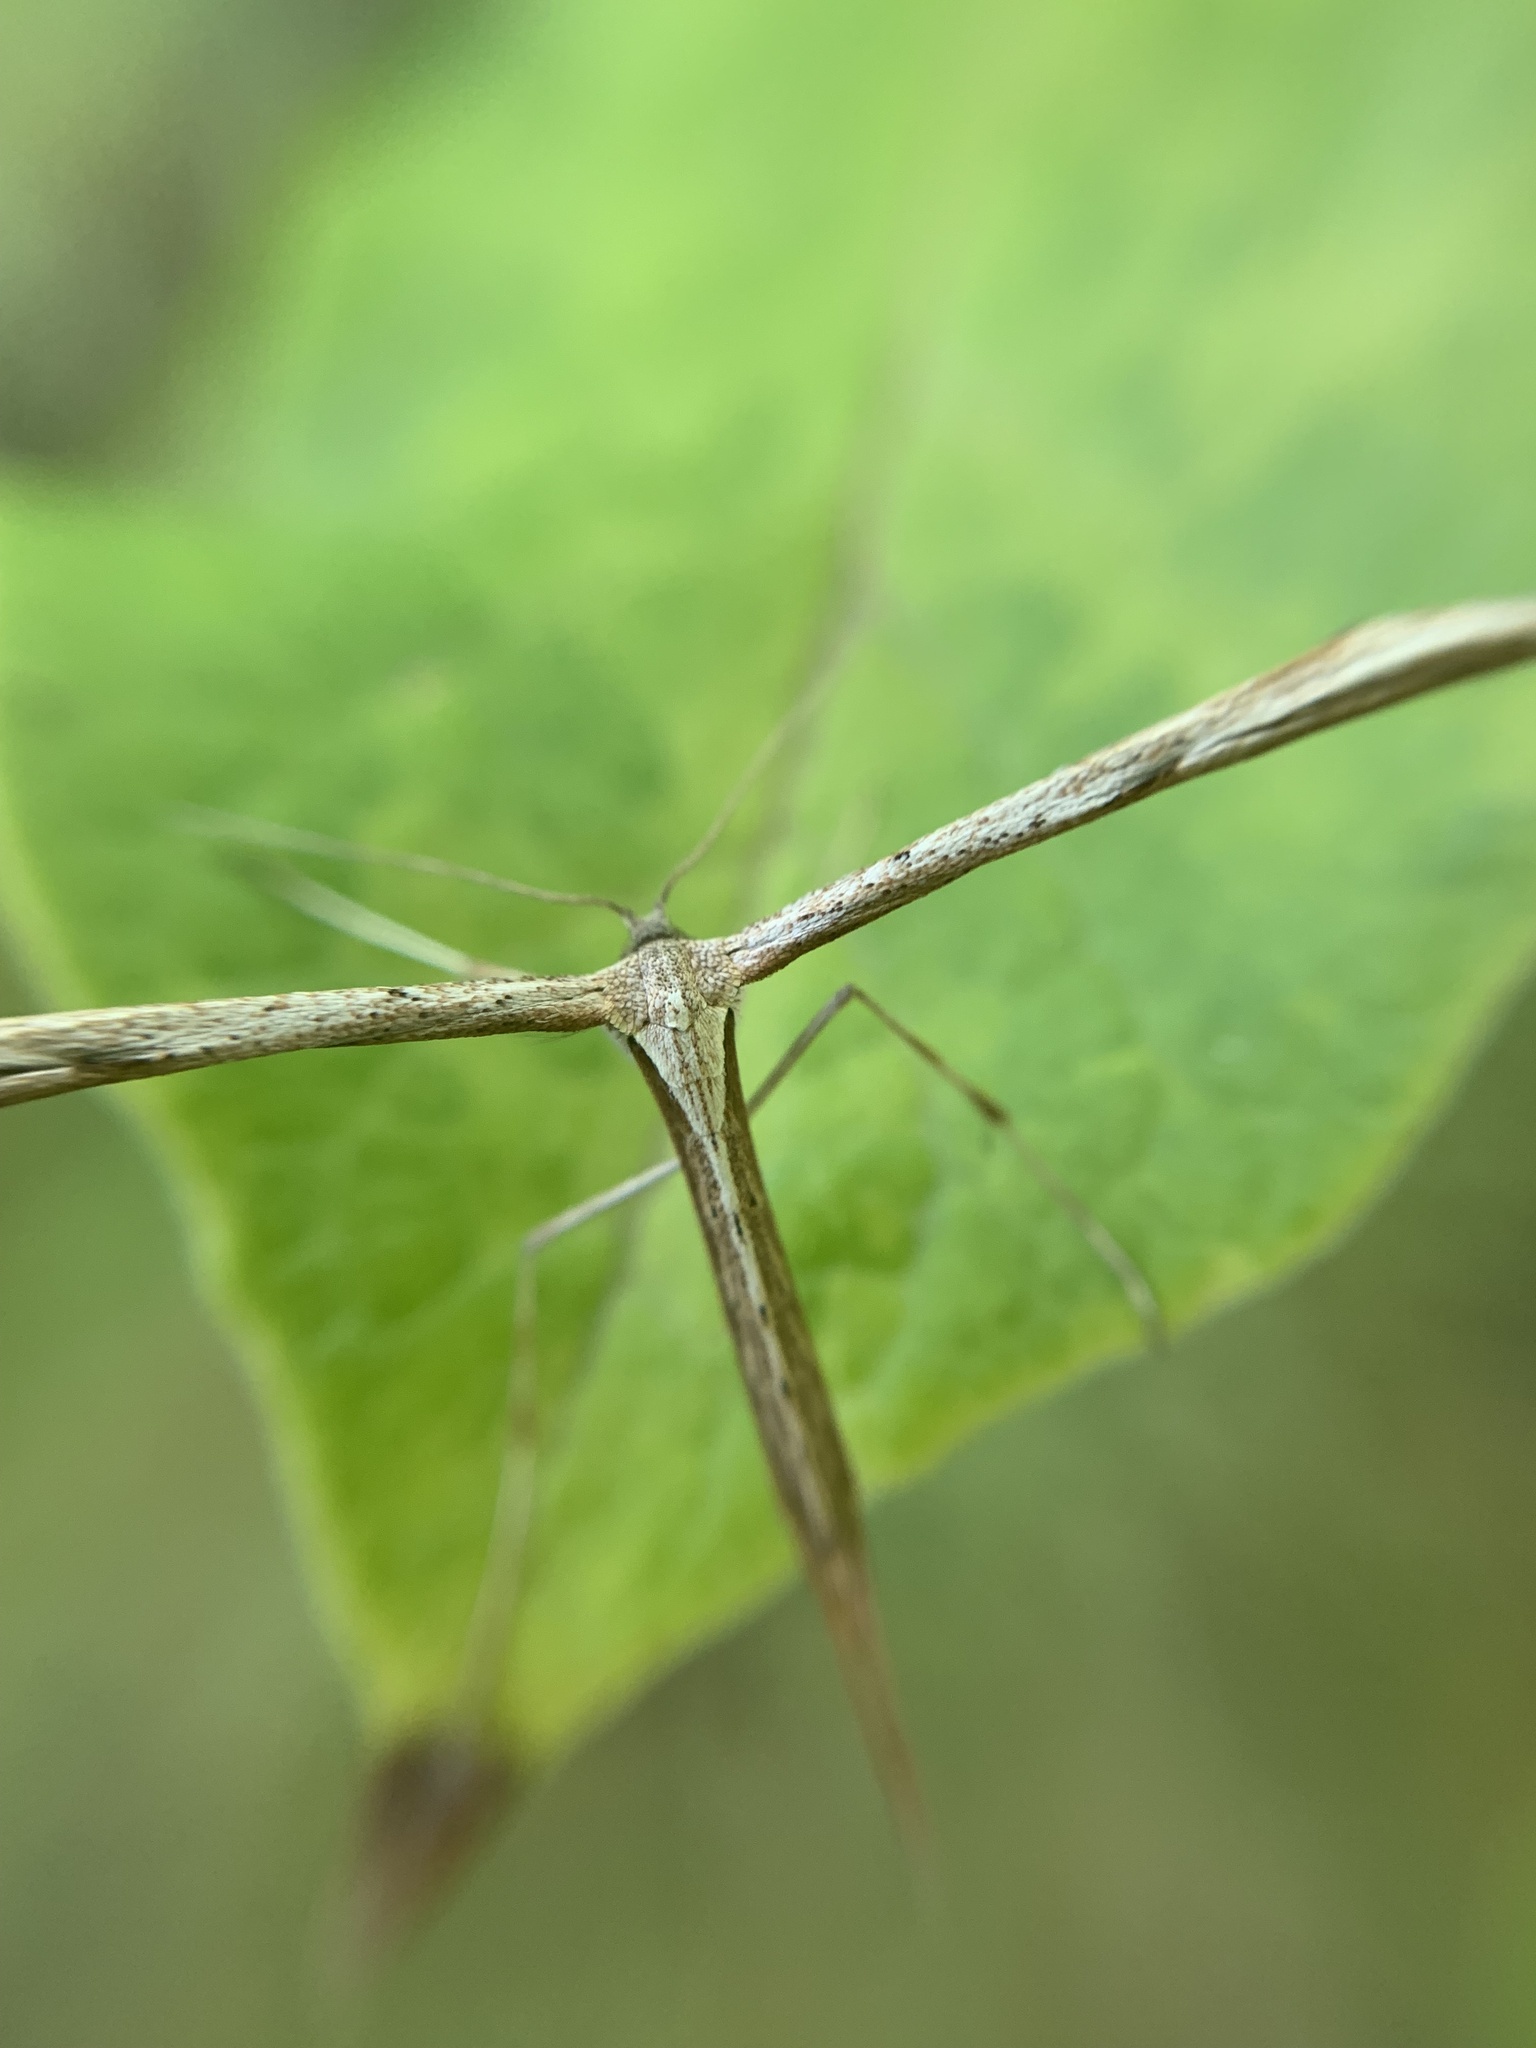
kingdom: Animalia
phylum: Arthropoda
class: Insecta
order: Lepidoptera
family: Pterophoridae
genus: Emmelina
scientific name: Emmelina monodactyla
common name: Common plume
